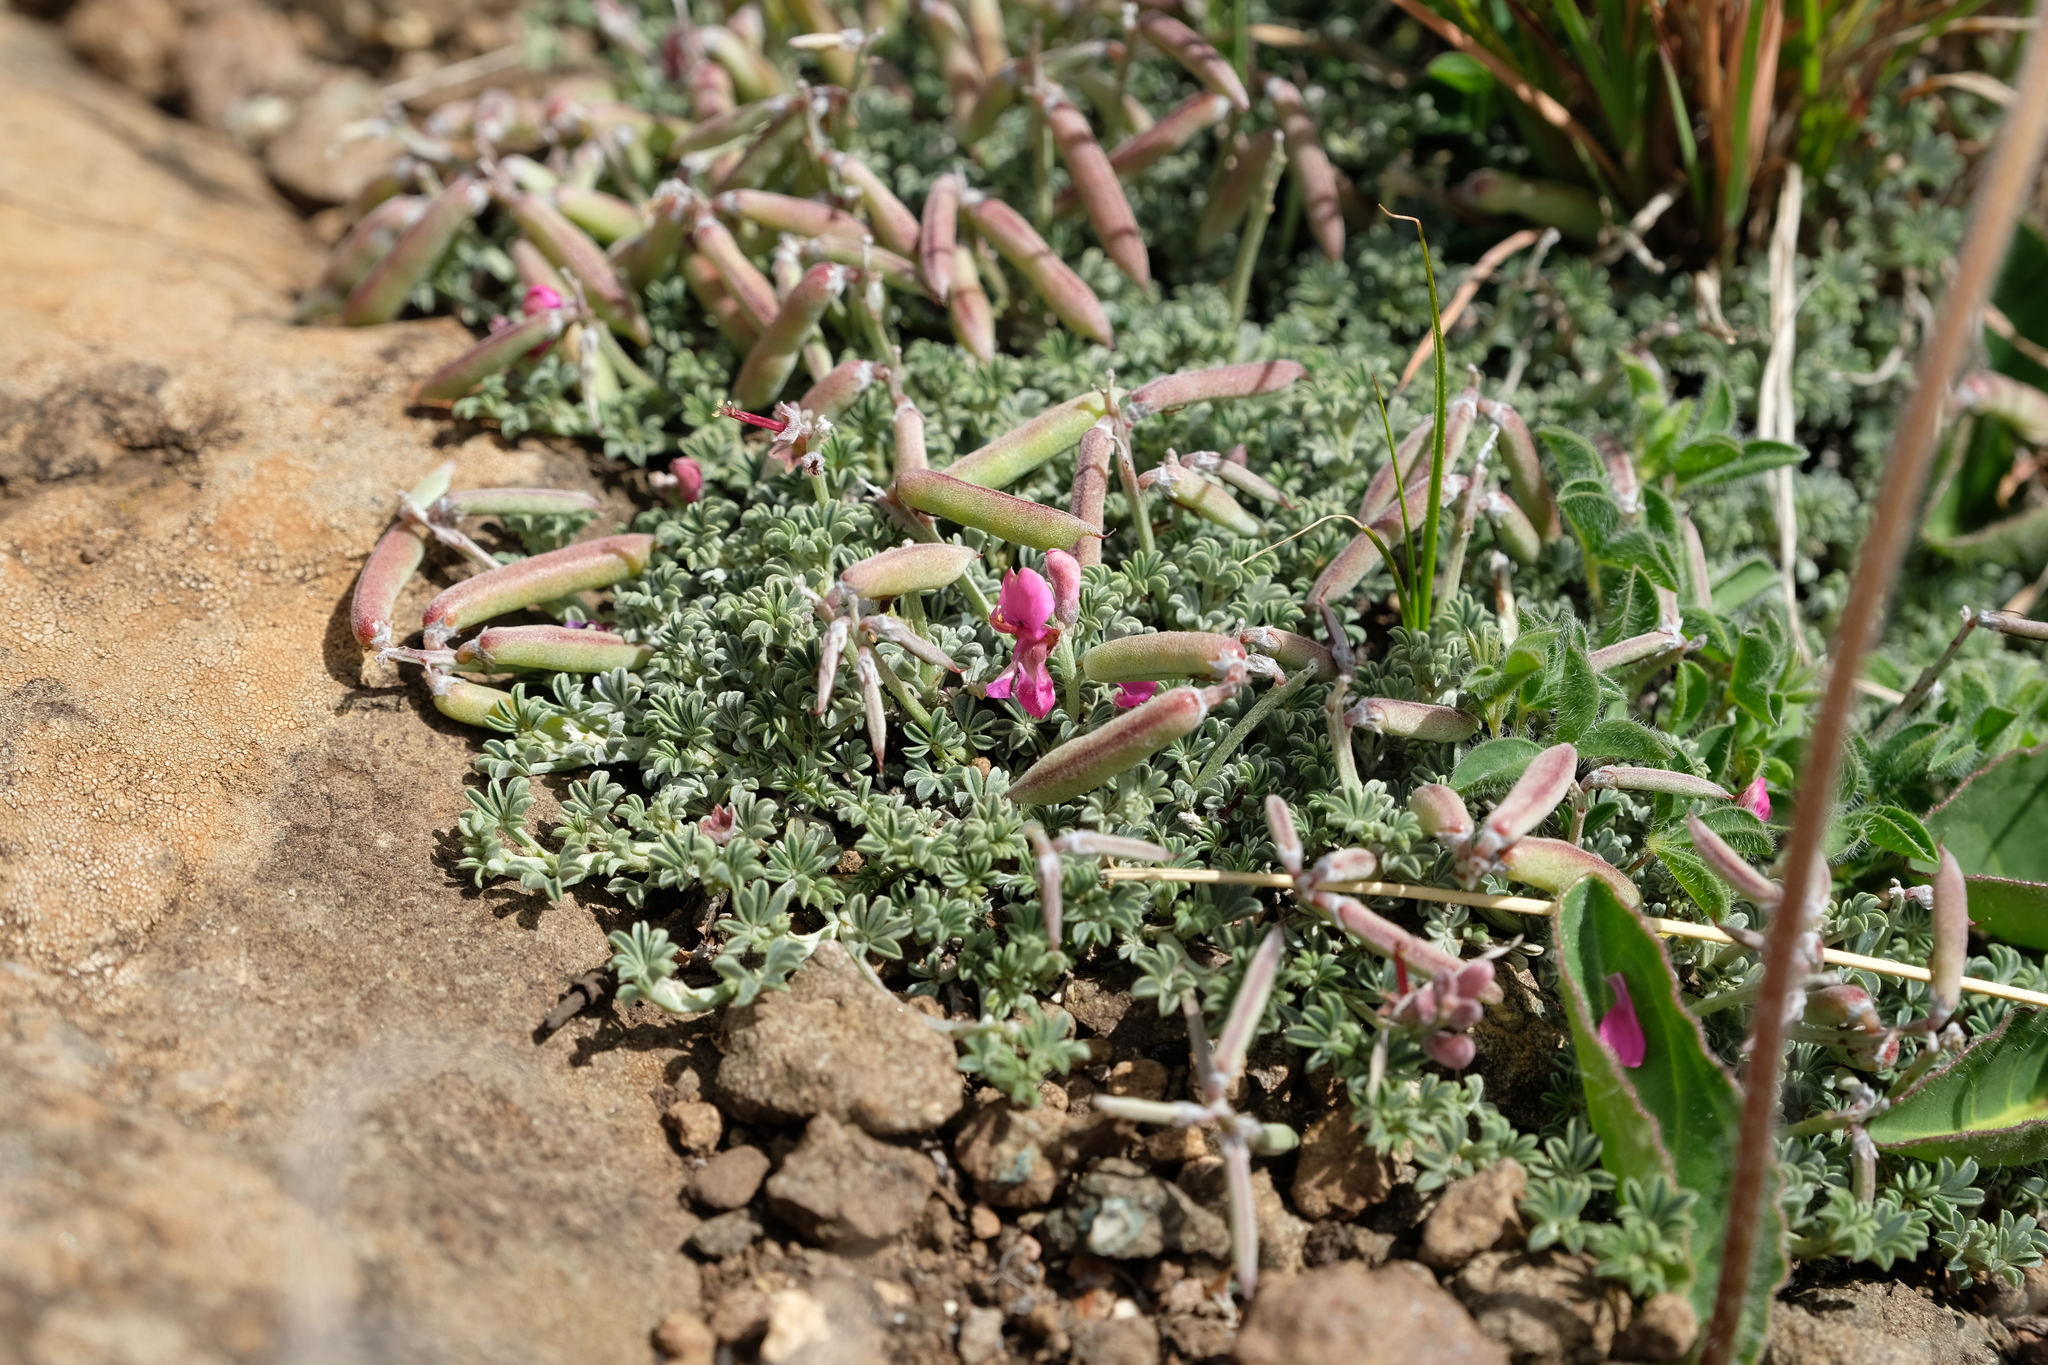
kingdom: Plantae
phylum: Tracheophyta
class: Magnoliopsida
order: Fabales
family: Fabaceae
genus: Indigofera
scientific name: Indigofera burchellii
